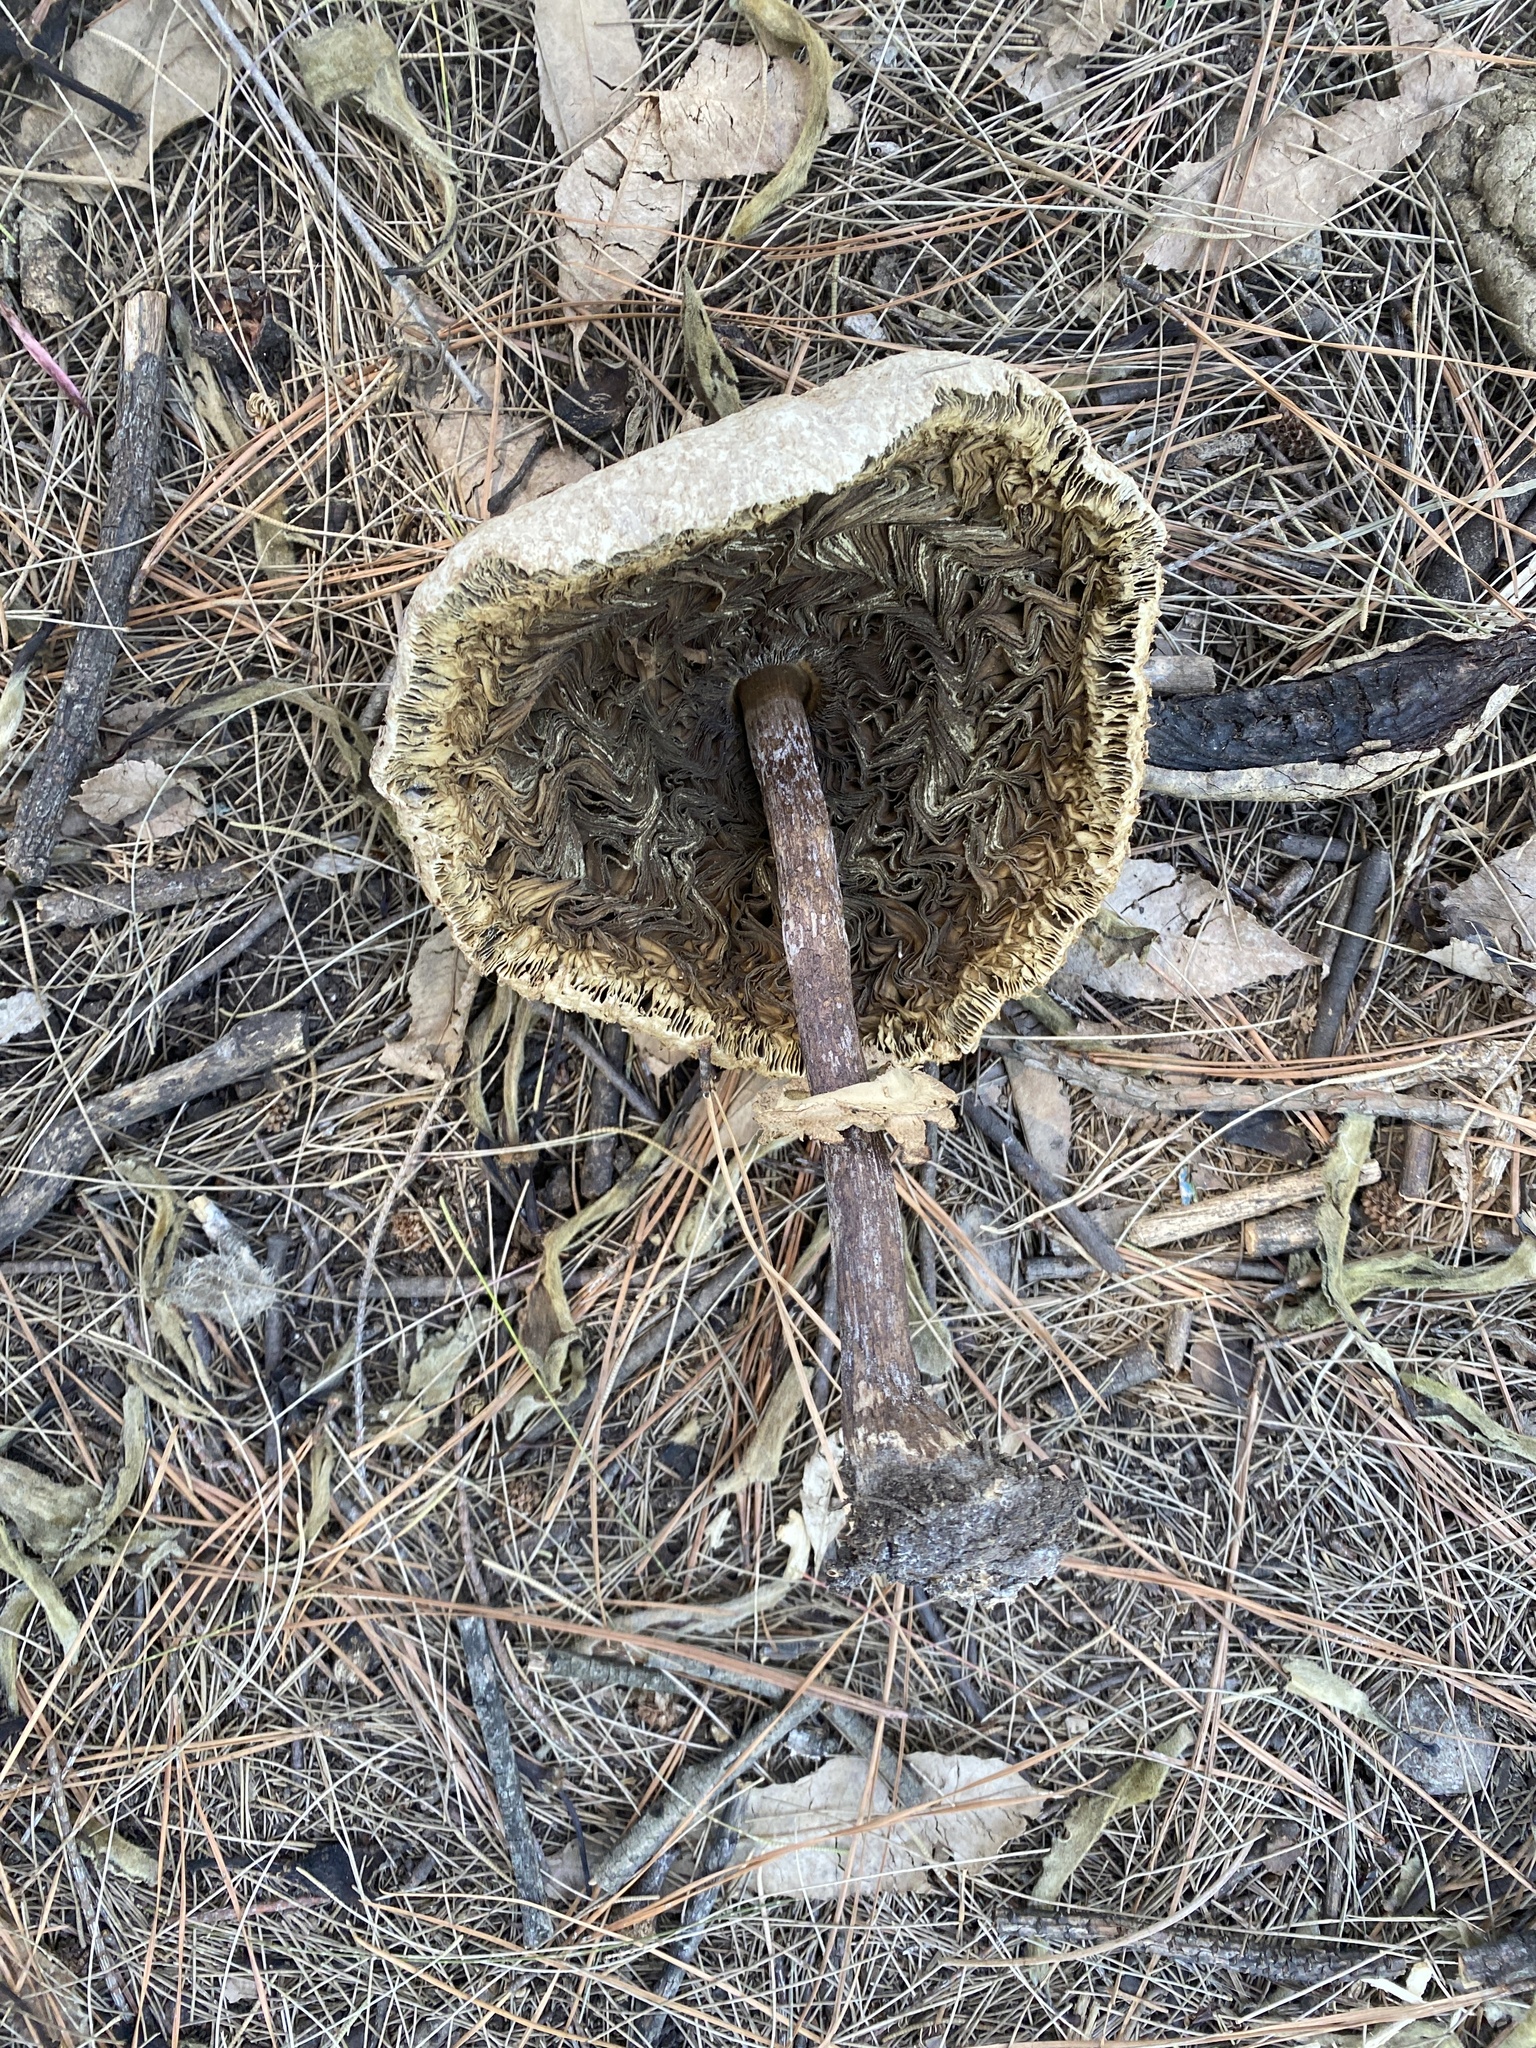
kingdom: Fungi
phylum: Basidiomycota
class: Agaricomycetes
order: Agaricales
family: Agaricaceae
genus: Chlorophyllum
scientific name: Chlorophyllum molybdites
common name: False parasol
